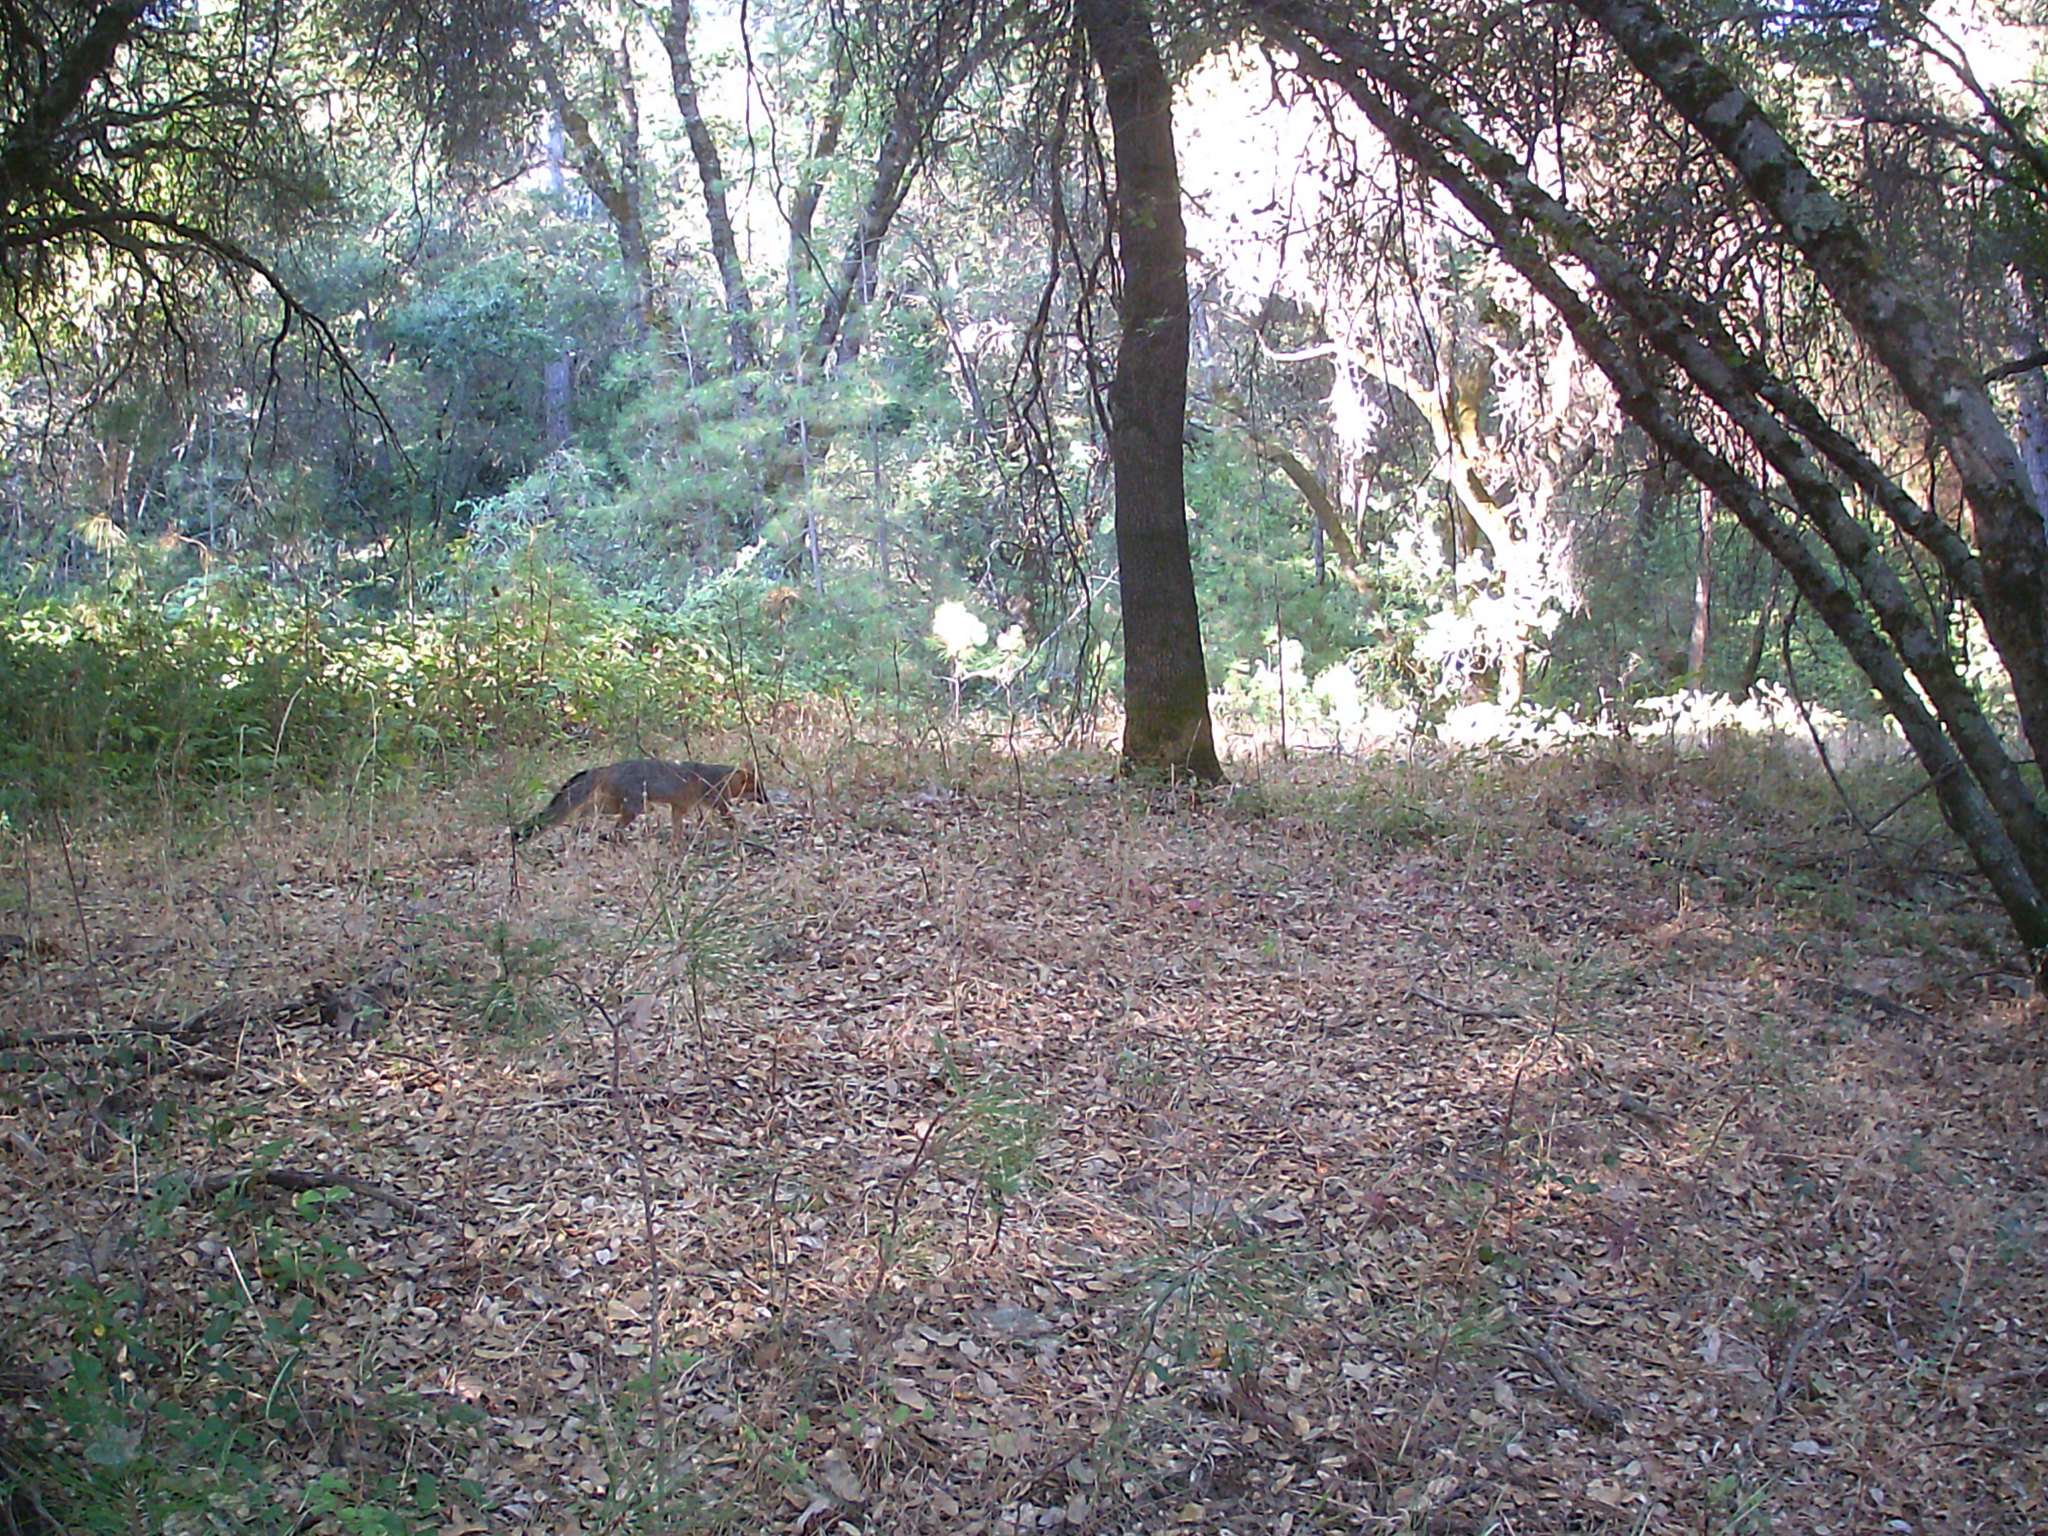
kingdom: Animalia
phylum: Chordata
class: Mammalia
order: Carnivora
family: Canidae
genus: Urocyon
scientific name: Urocyon cinereoargenteus
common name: Gray fox
